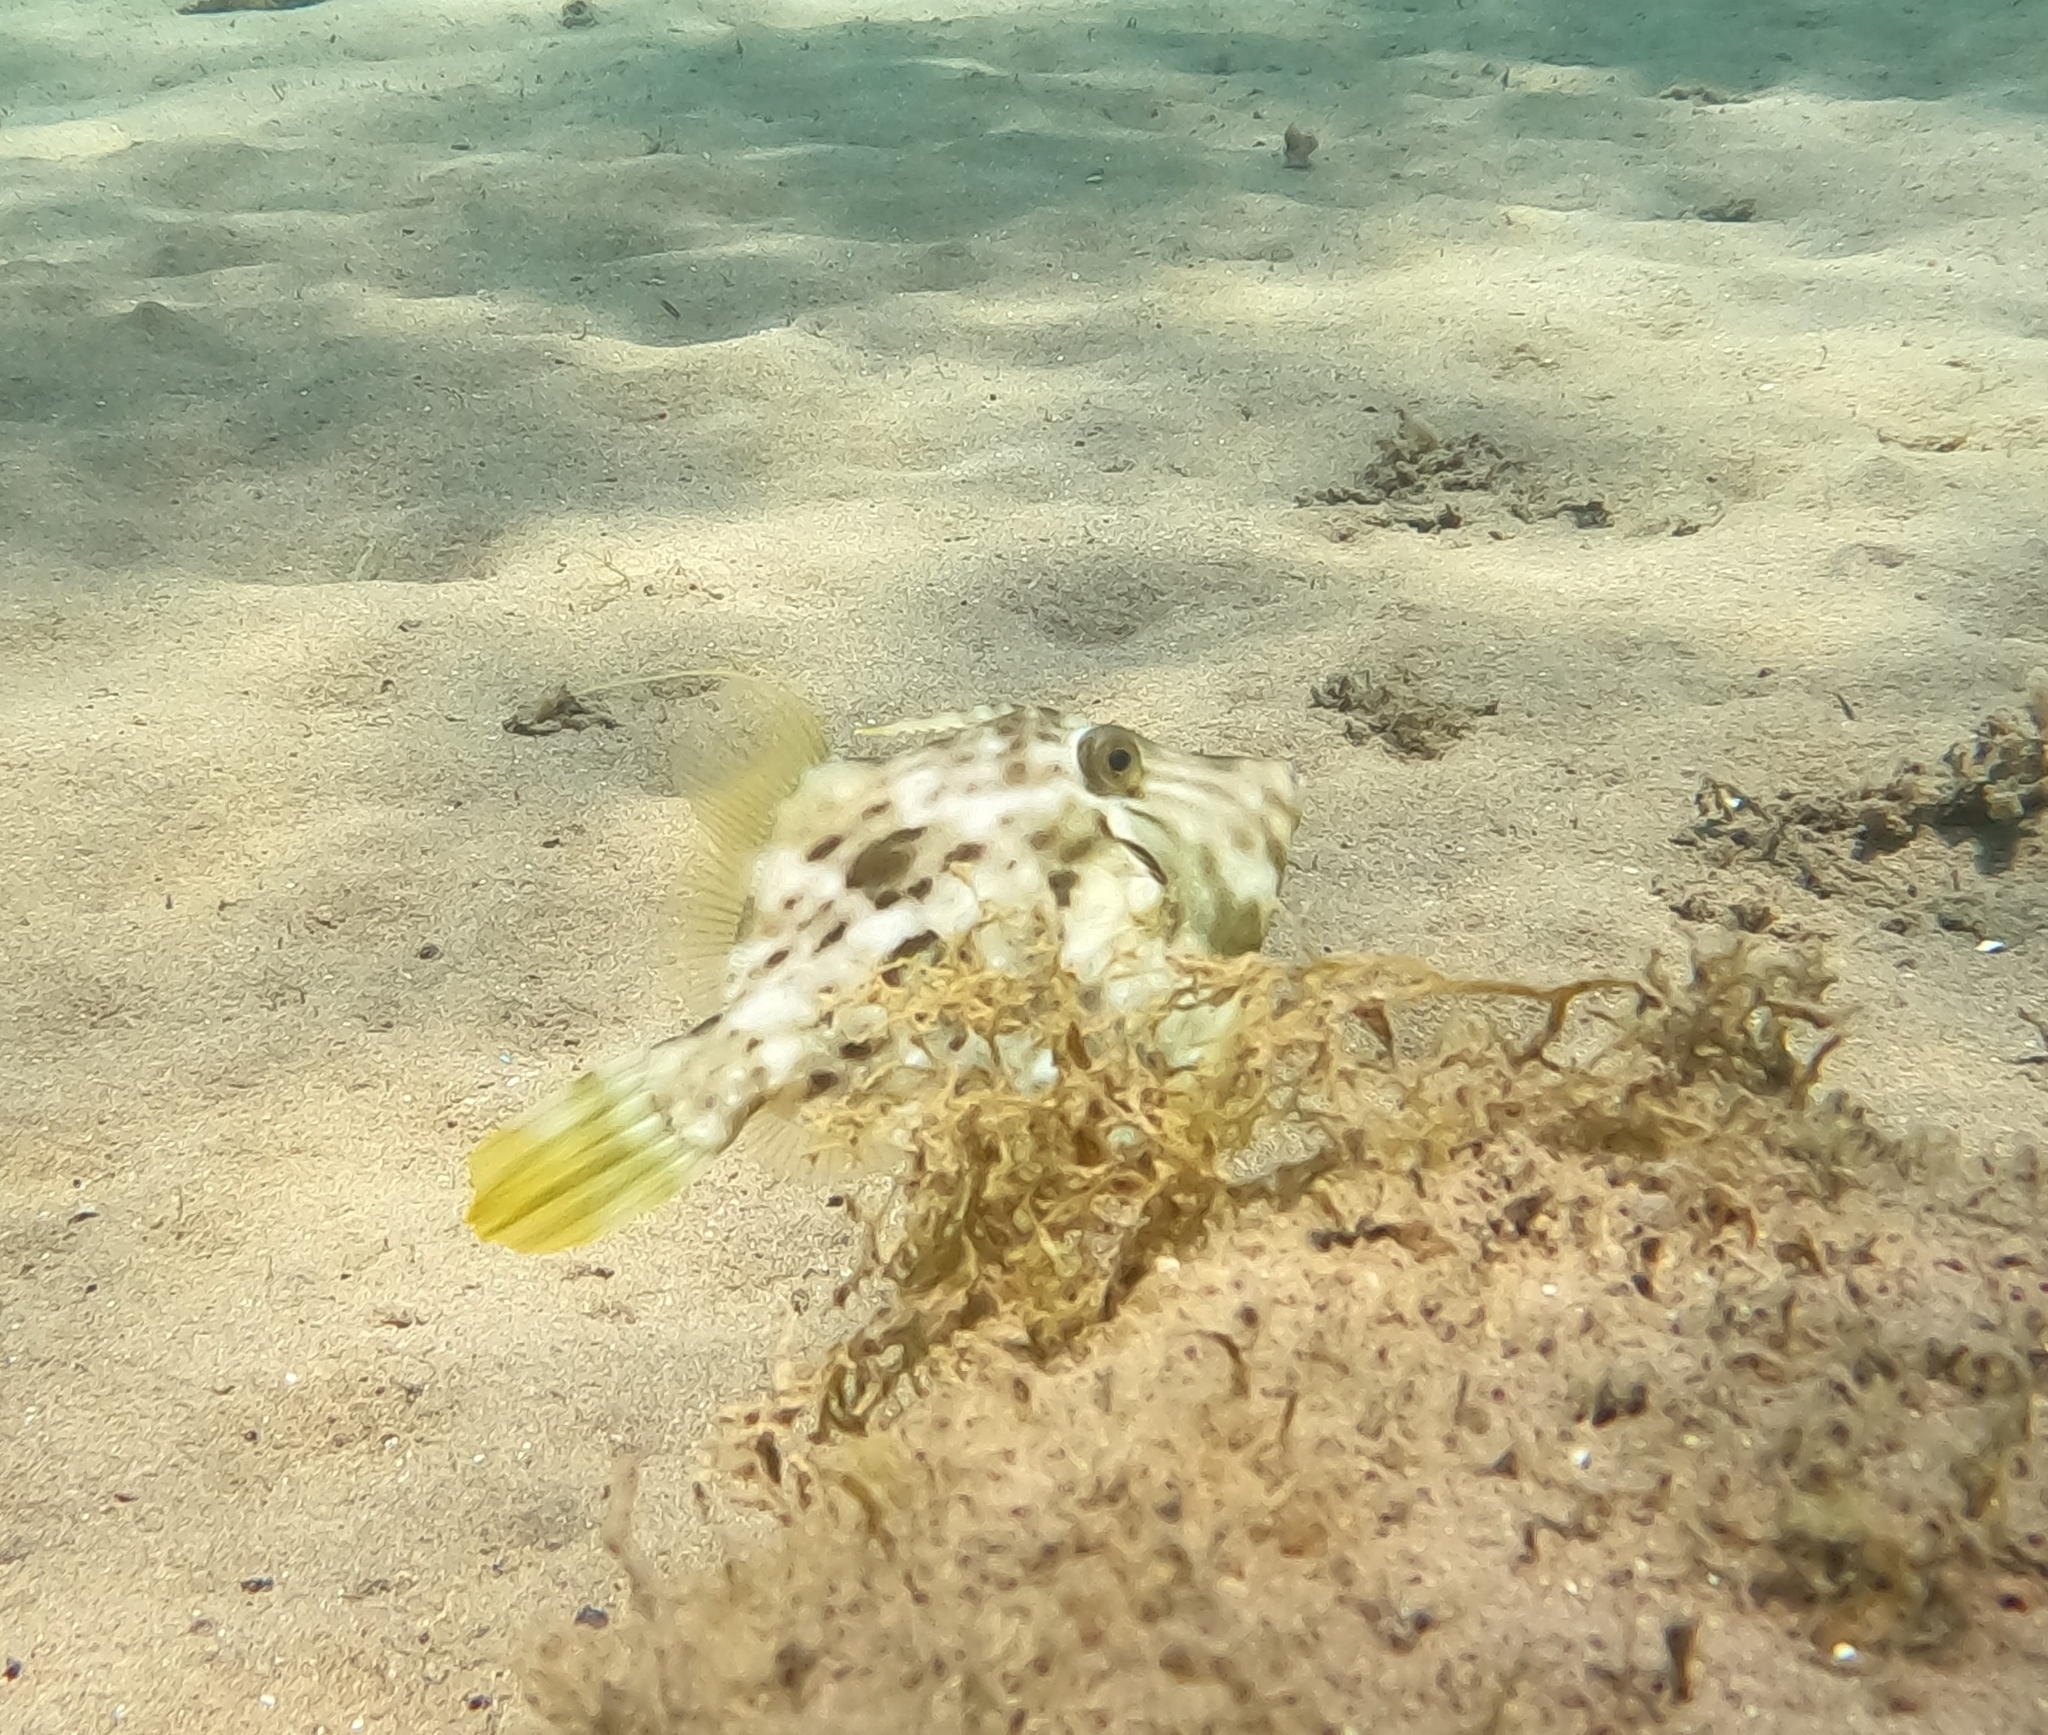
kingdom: Animalia
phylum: Chordata
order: Tetraodontiformes
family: Monacanthidae
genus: Stephanolepis
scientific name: Stephanolepis hispidus
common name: Planehead filefish
